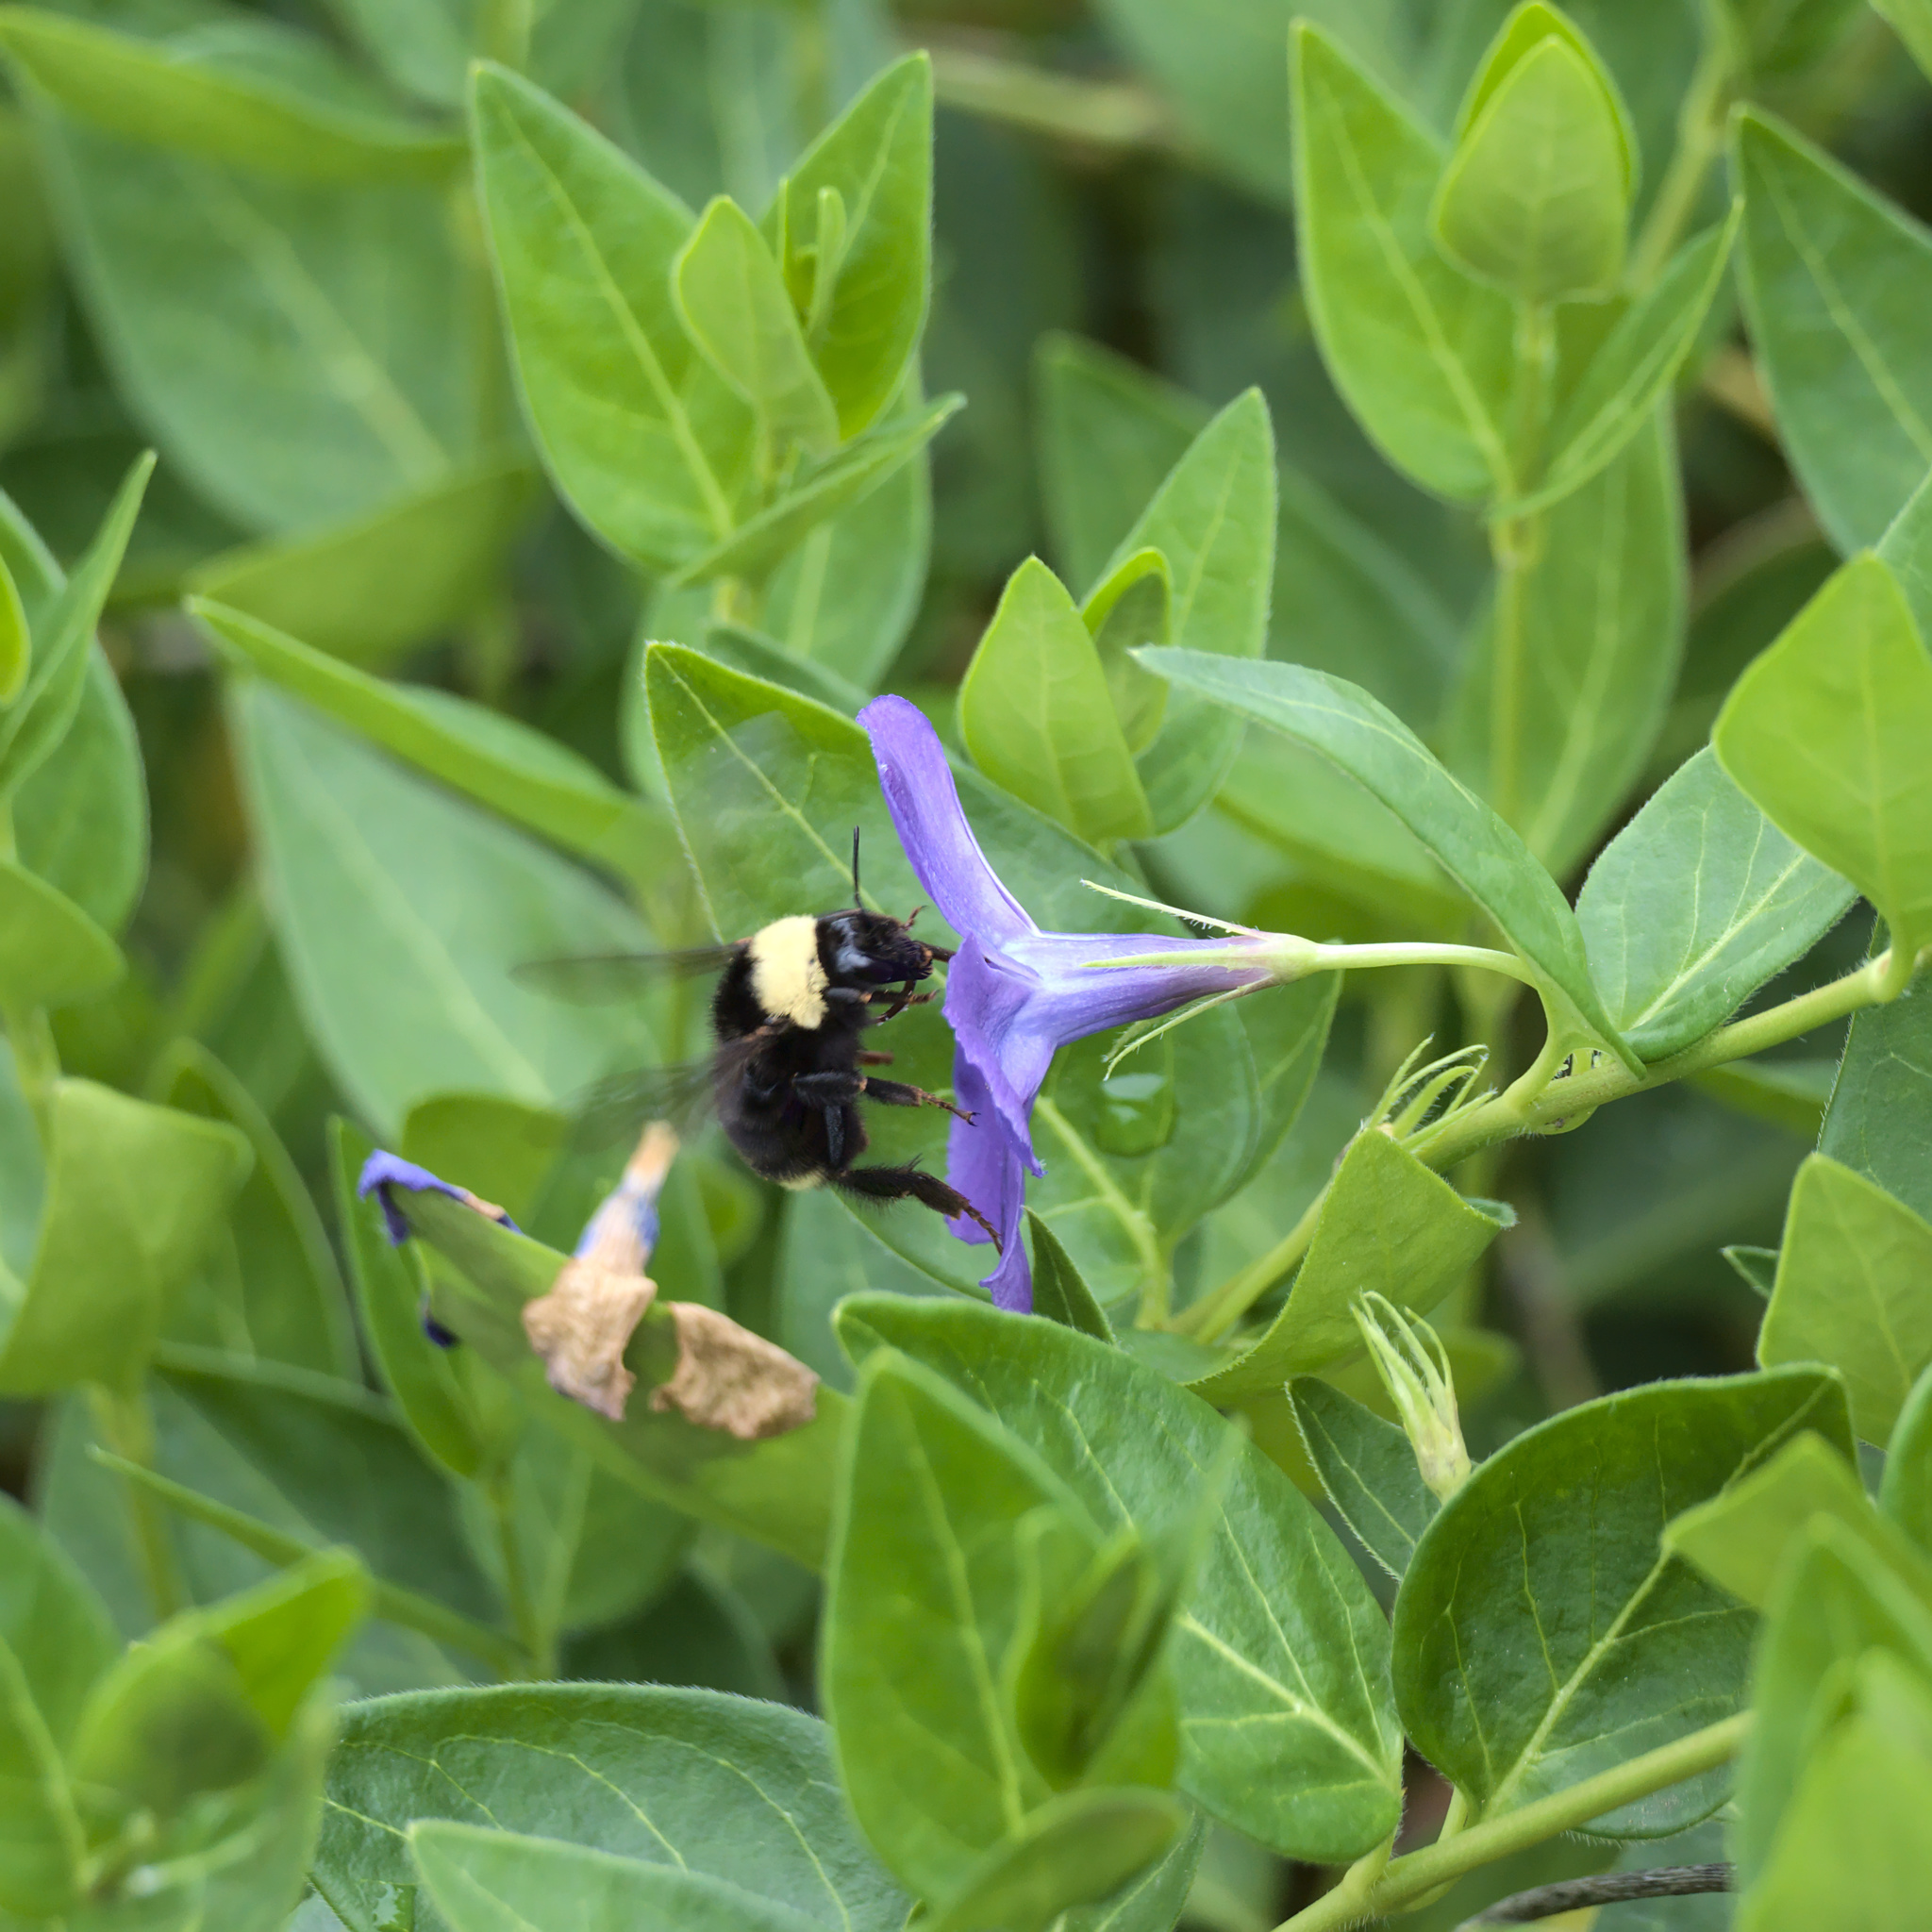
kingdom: Animalia
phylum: Arthropoda
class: Insecta
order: Hymenoptera
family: Apidae
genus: Bombus
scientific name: Bombus californicus
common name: California bumble bee
